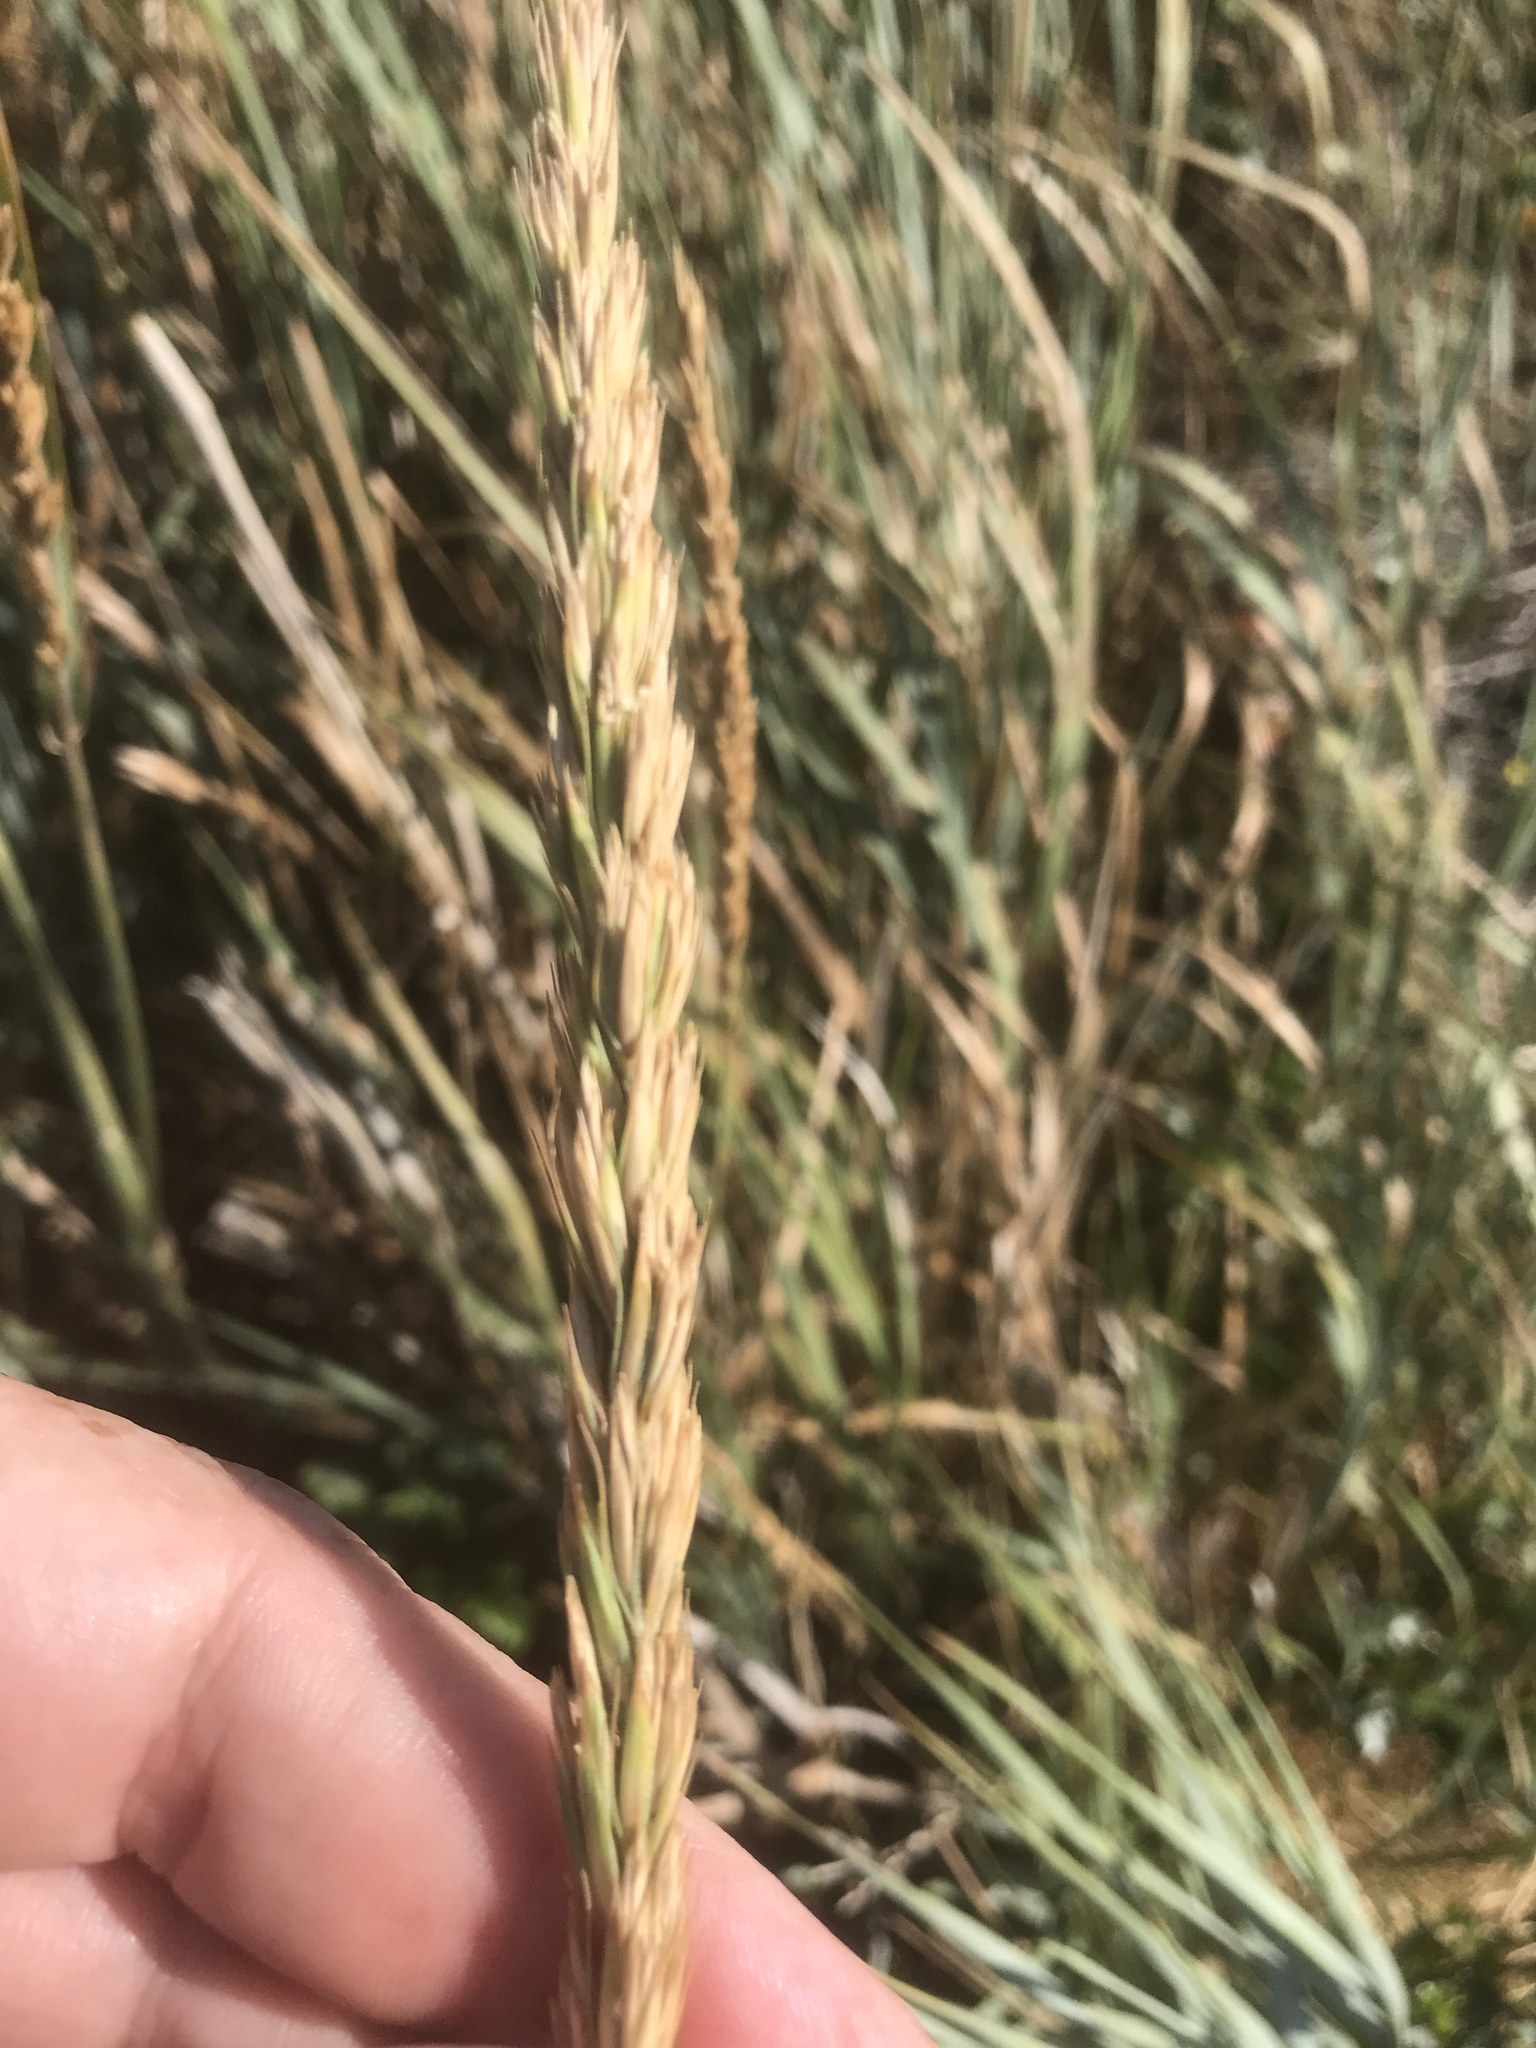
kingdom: Plantae
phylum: Tracheophyta
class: Liliopsida
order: Poales
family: Poaceae
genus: Leymus
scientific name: Leymus condensatus
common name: Giant wild rye
